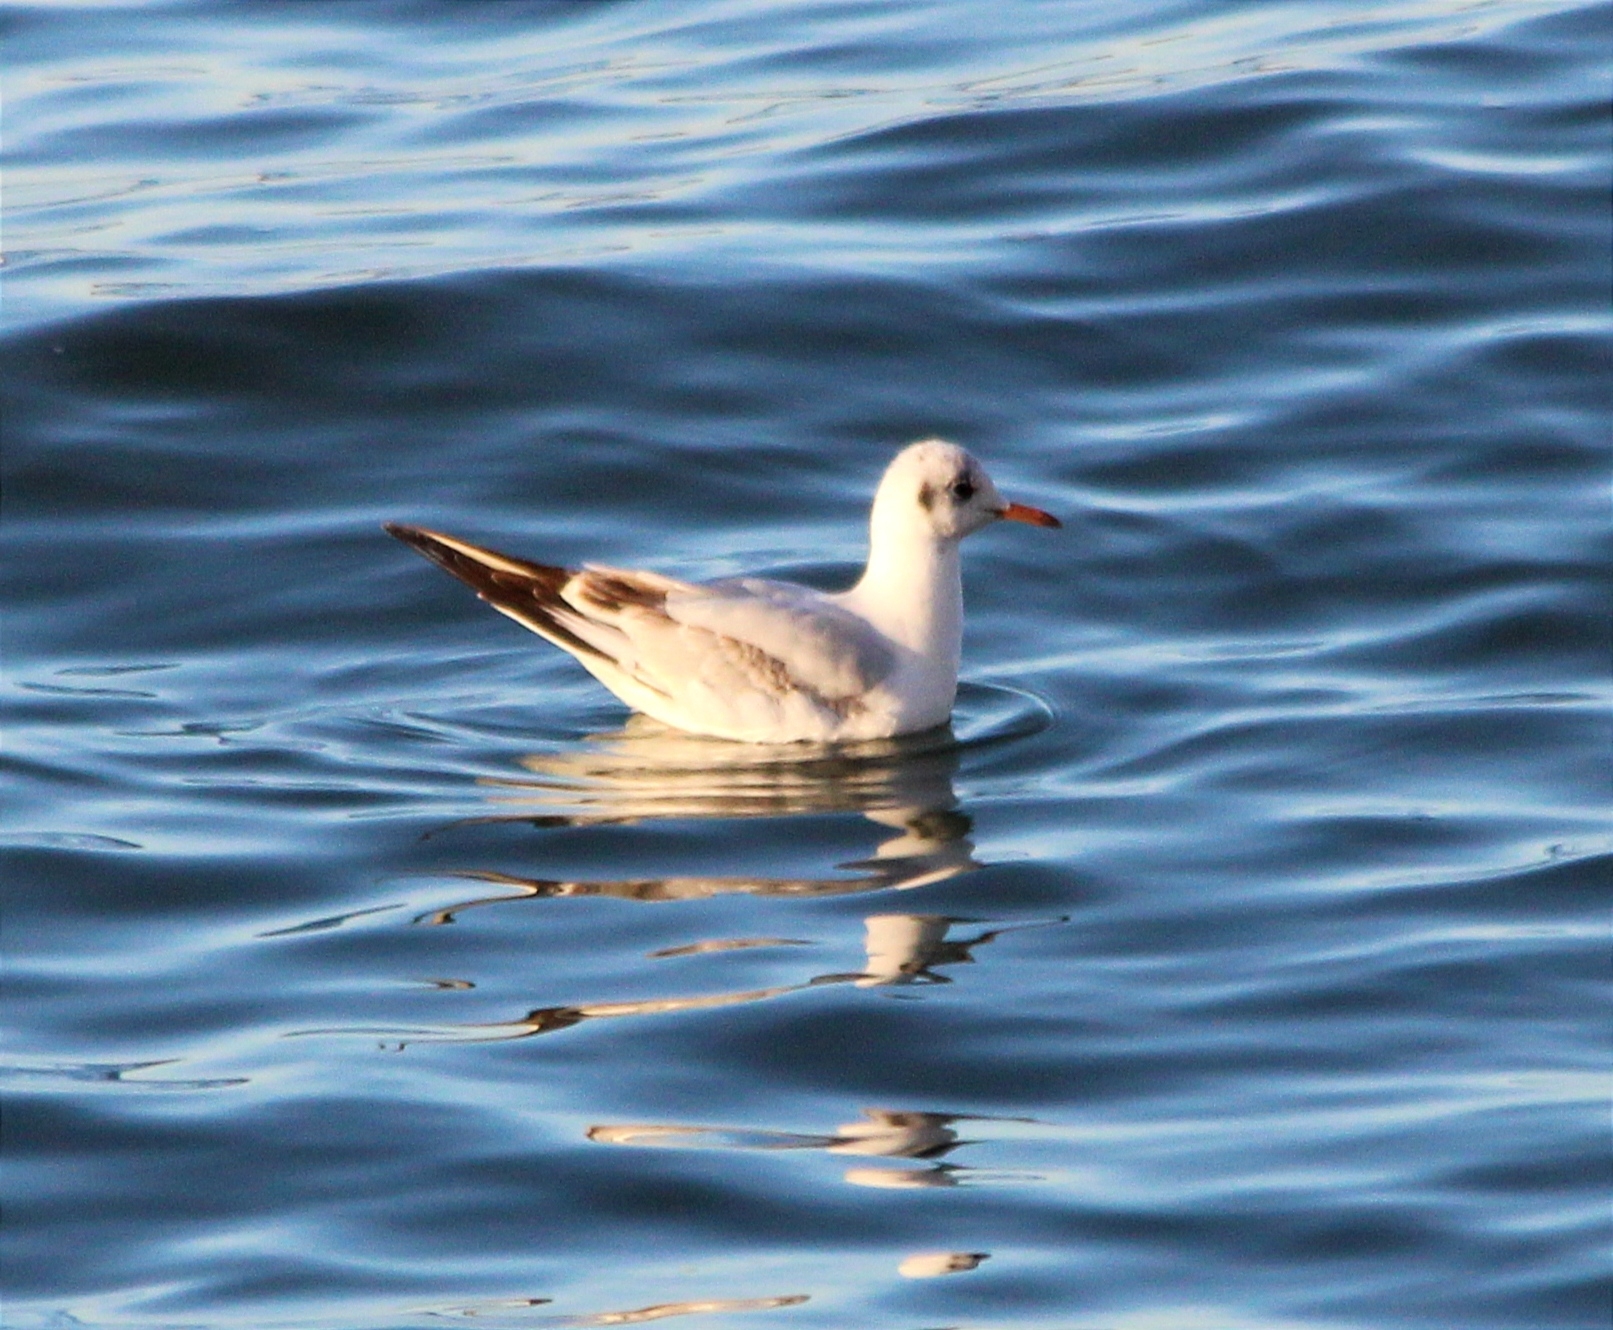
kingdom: Animalia
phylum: Chordata
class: Aves
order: Charadriiformes
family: Laridae
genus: Chroicocephalus
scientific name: Chroicocephalus ridibundus
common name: Black-headed gull
